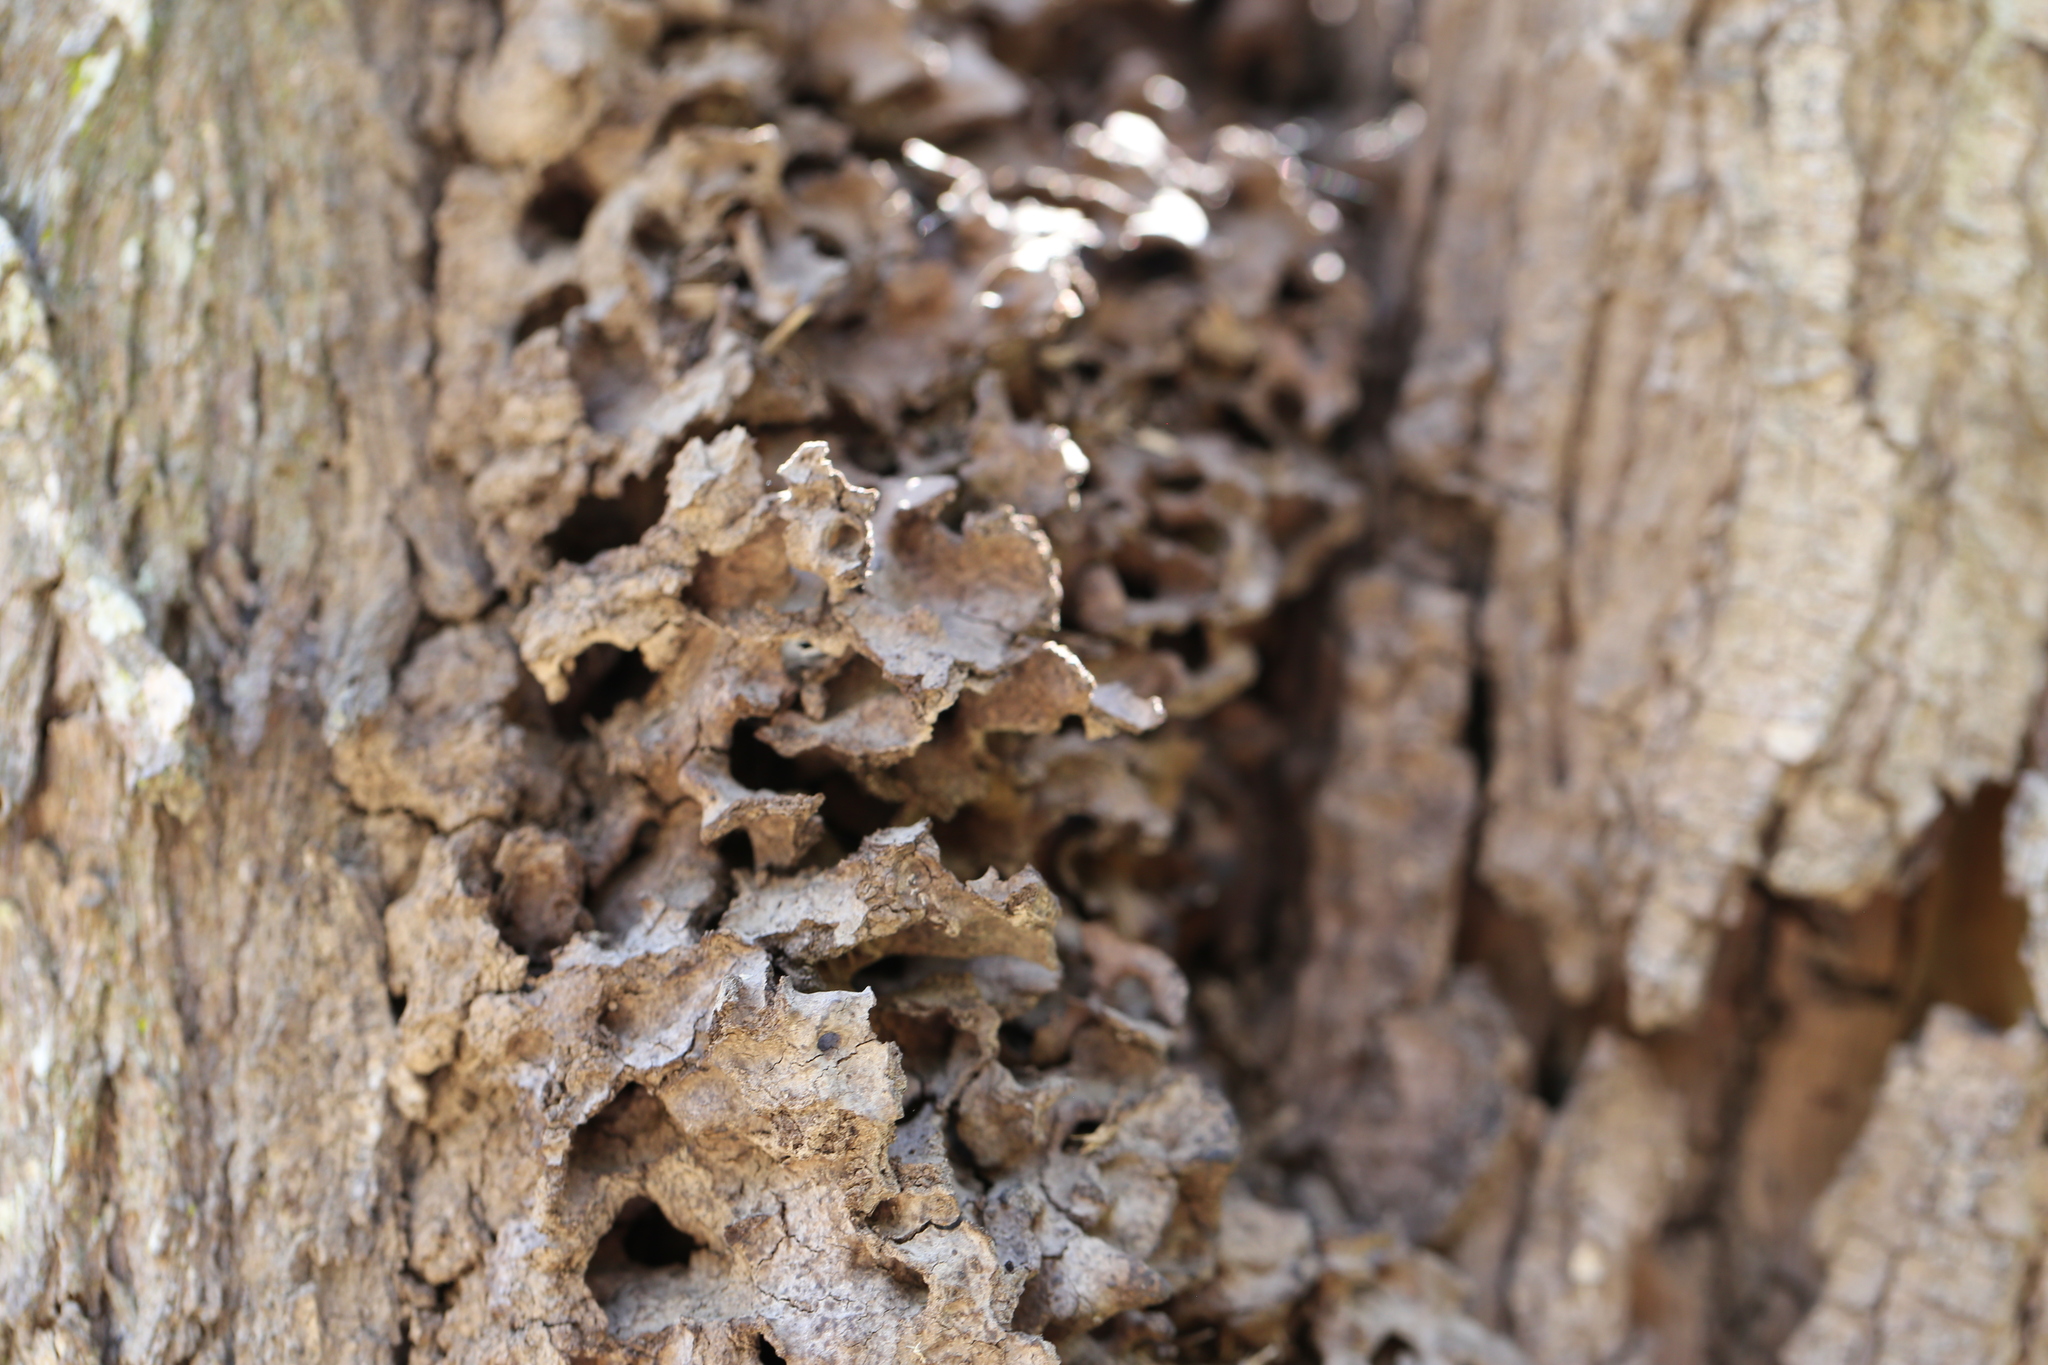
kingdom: Animalia
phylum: Arthropoda
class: Insecta
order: Hymenoptera
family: Formicidae
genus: Polyrhachis
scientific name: Polyrhachis daemeli
